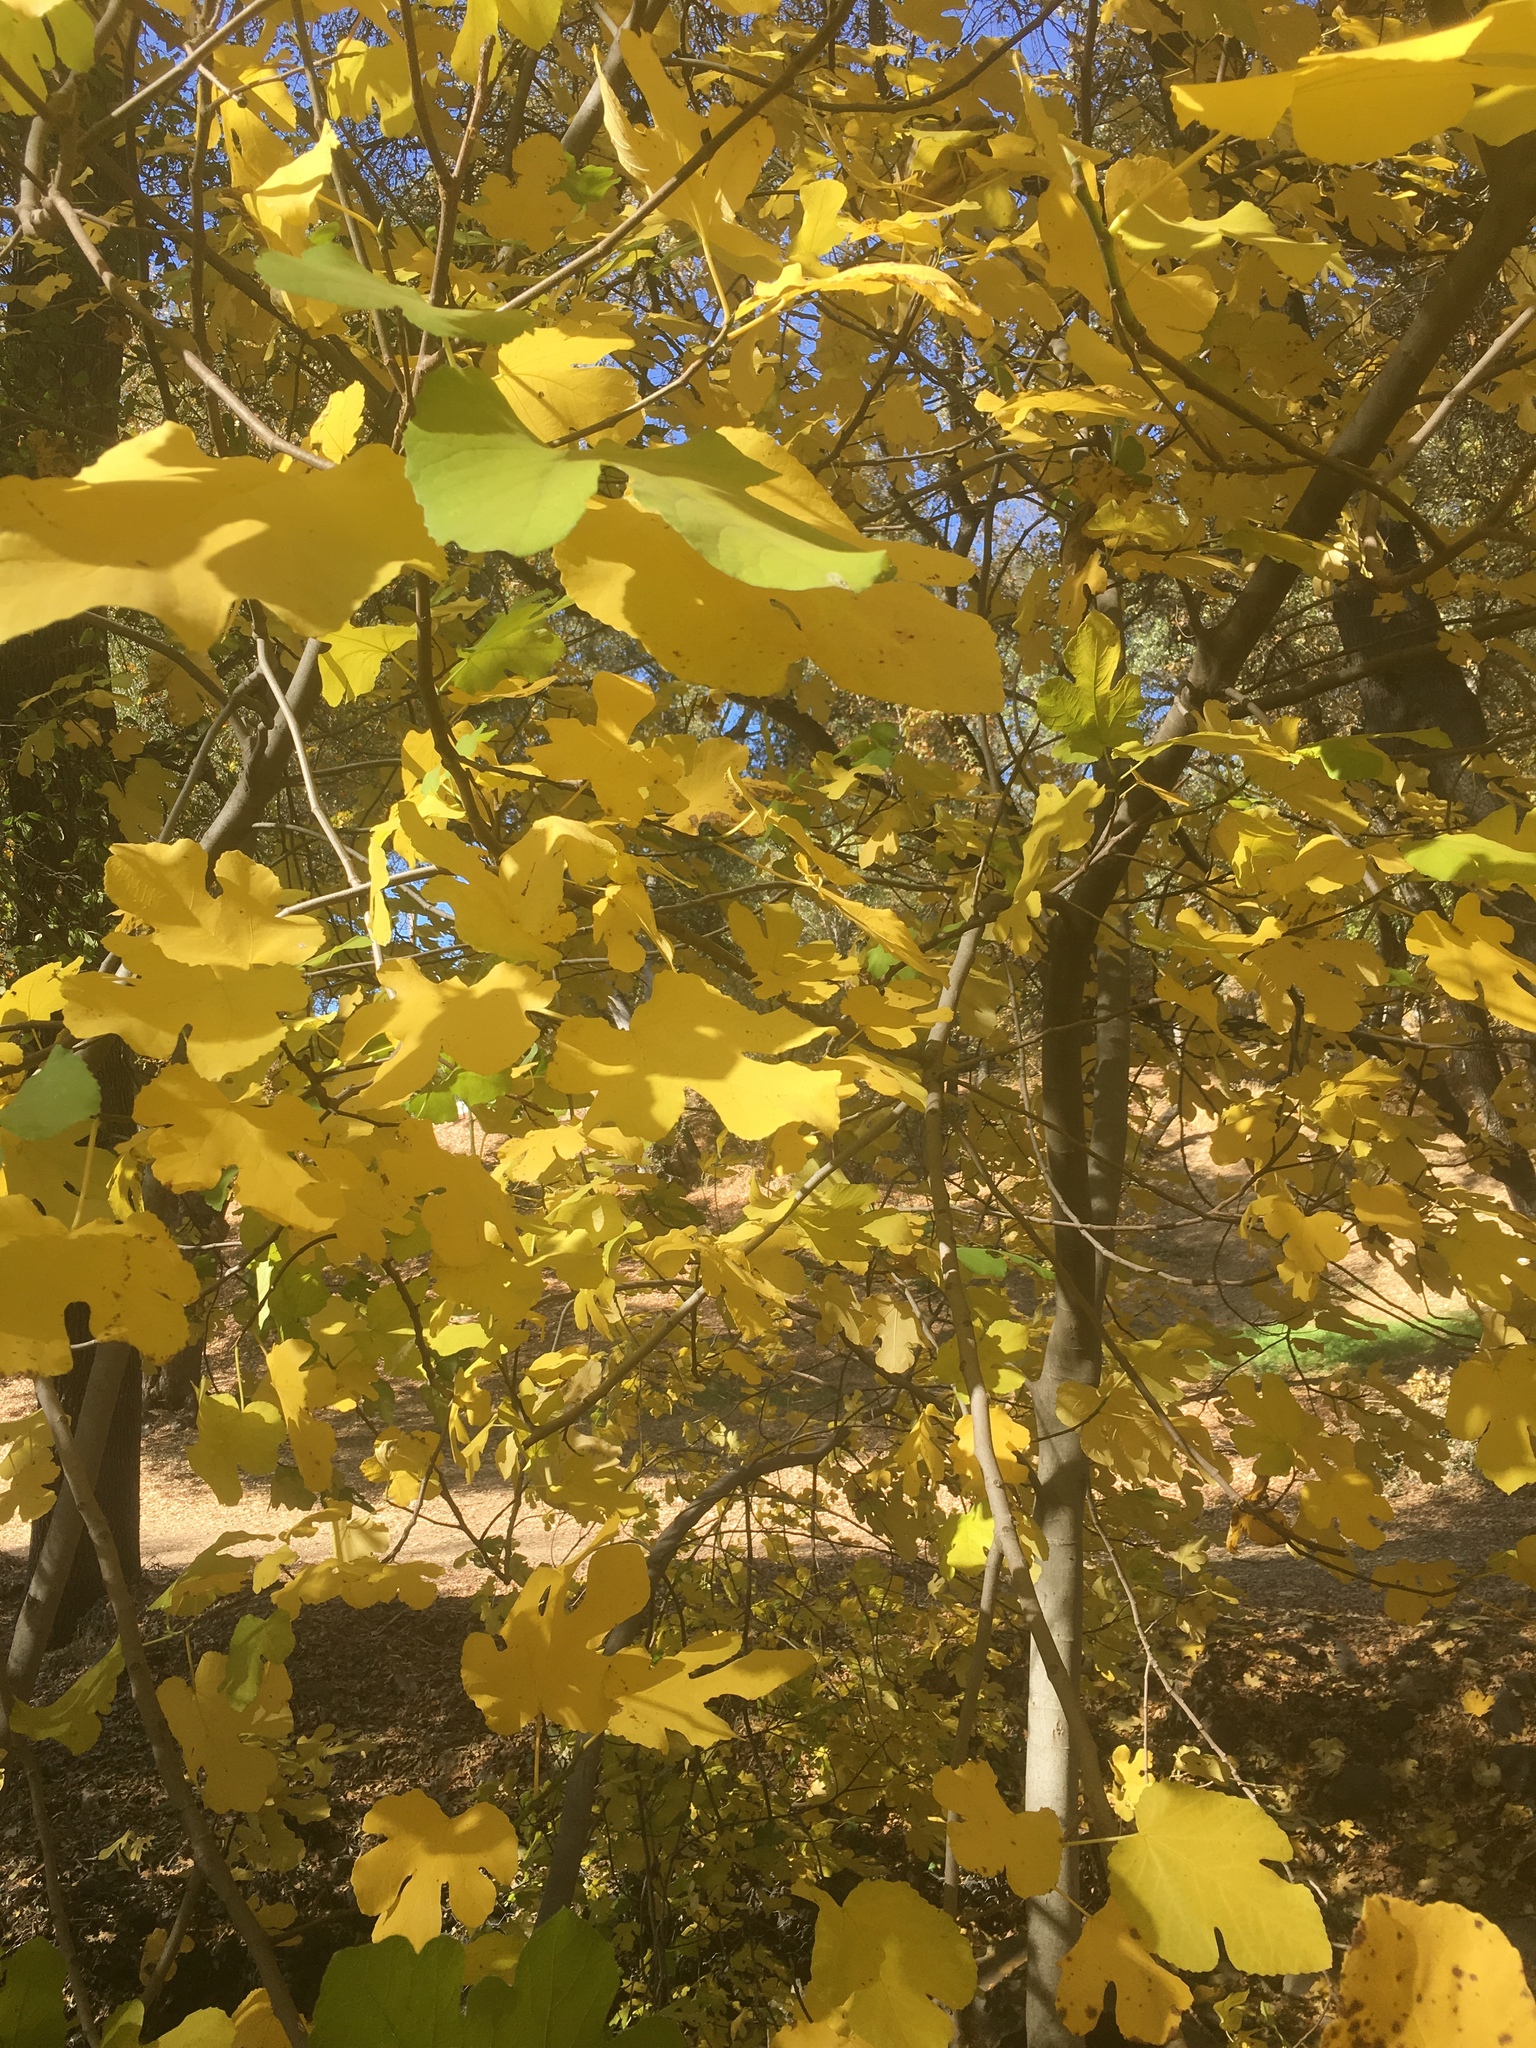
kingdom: Plantae
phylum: Tracheophyta
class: Magnoliopsida
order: Rosales
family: Moraceae
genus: Ficus
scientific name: Ficus carica
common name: Fig
